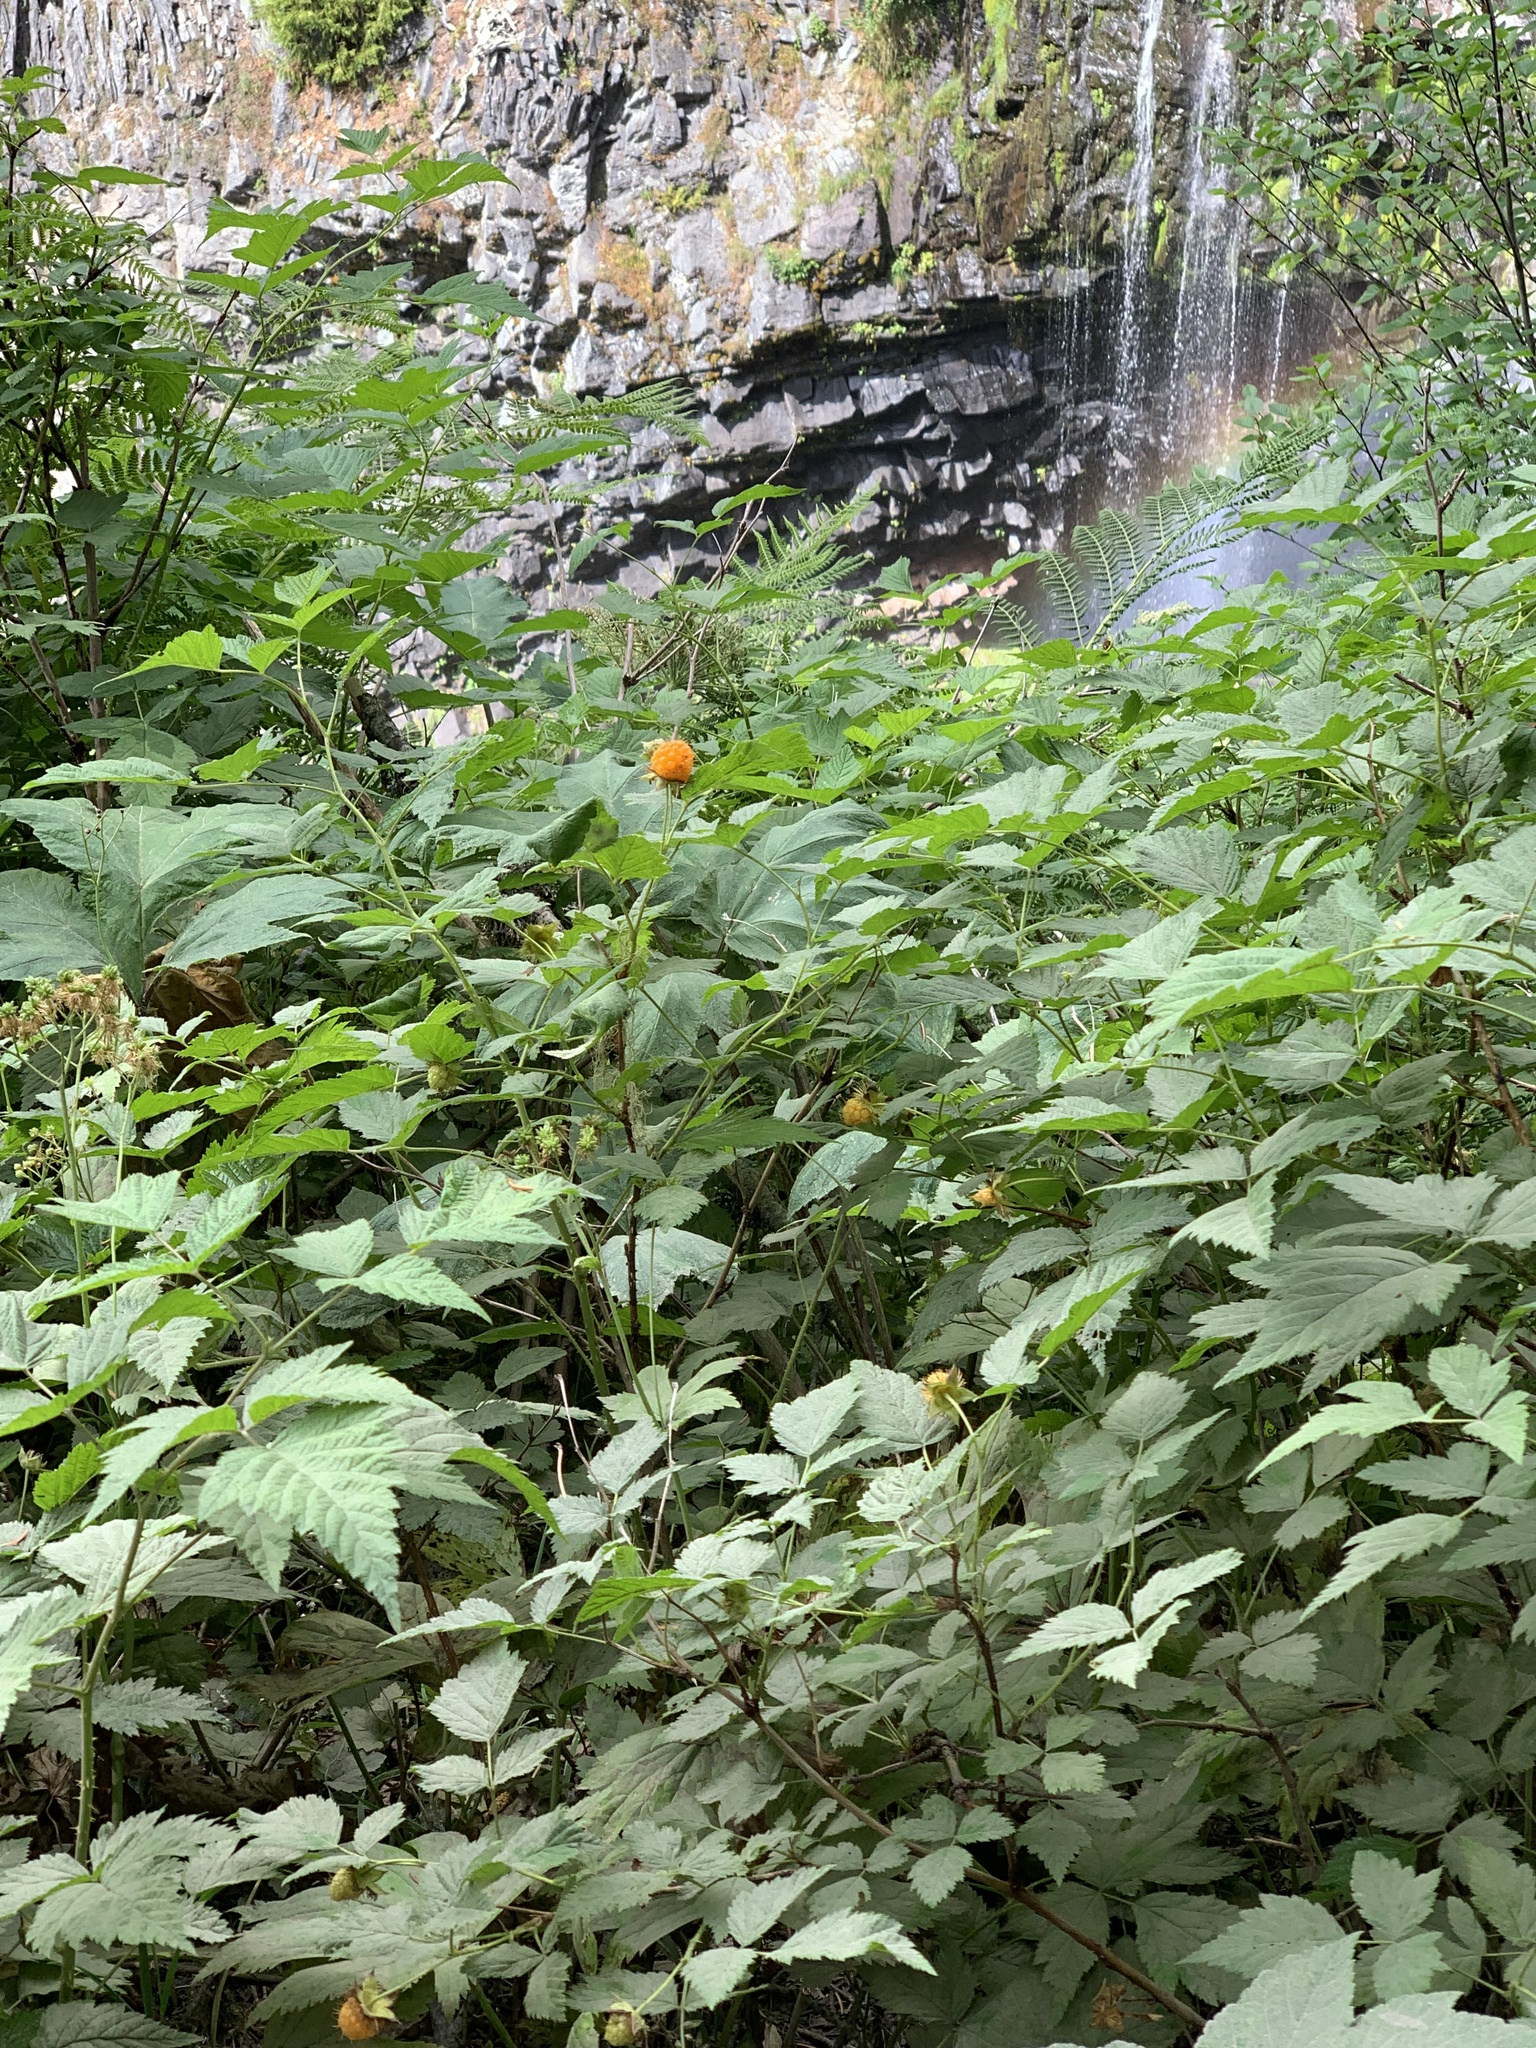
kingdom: Plantae
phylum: Tracheophyta
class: Magnoliopsida
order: Rosales
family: Rosaceae
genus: Rubus
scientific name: Rubus spectabilis
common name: Salmonberry
